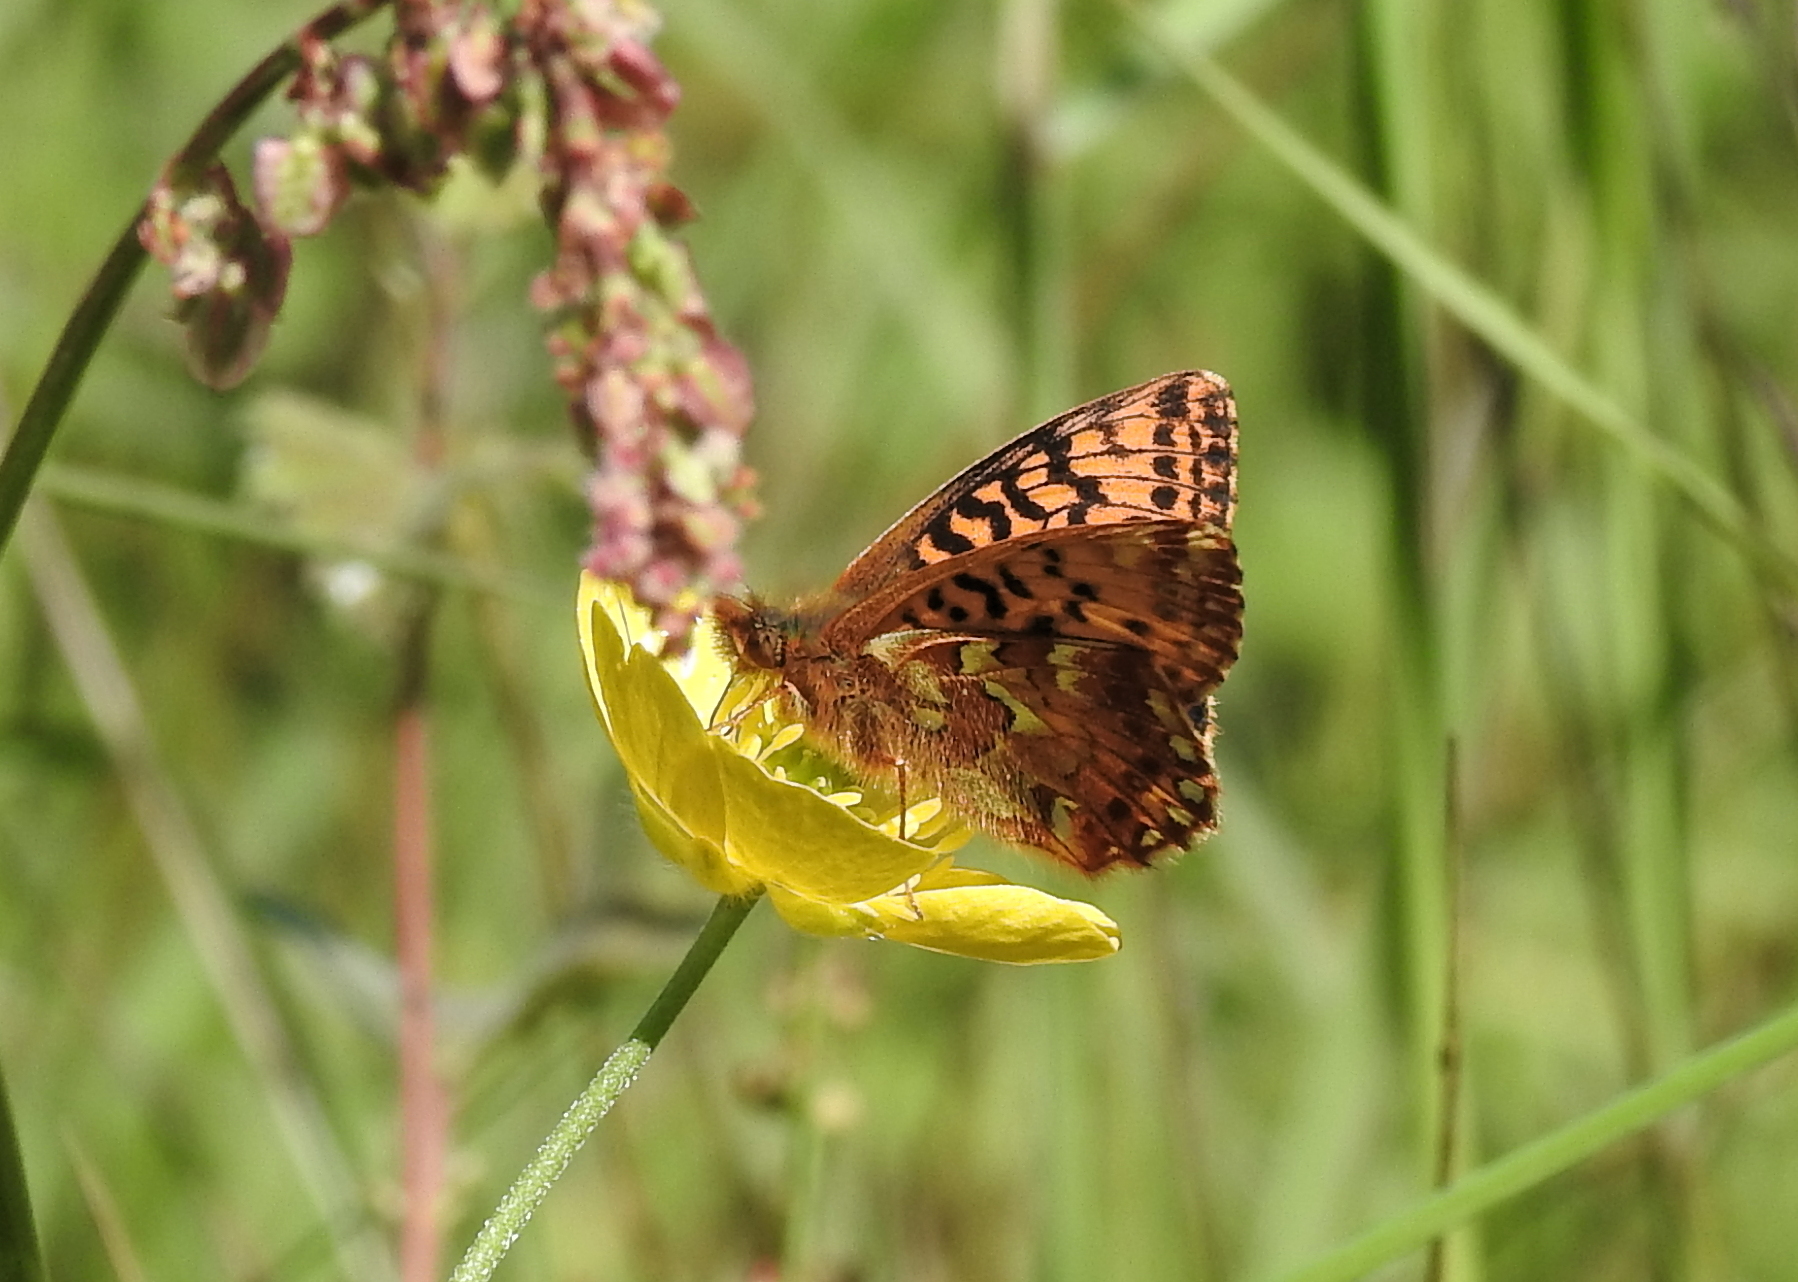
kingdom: Animalia
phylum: Arthropoda
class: Insecta
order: Lepidoptera
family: Nymphalidae
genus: Boloria
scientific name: Boloria aquilonaris
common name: Cranberry fritillary
